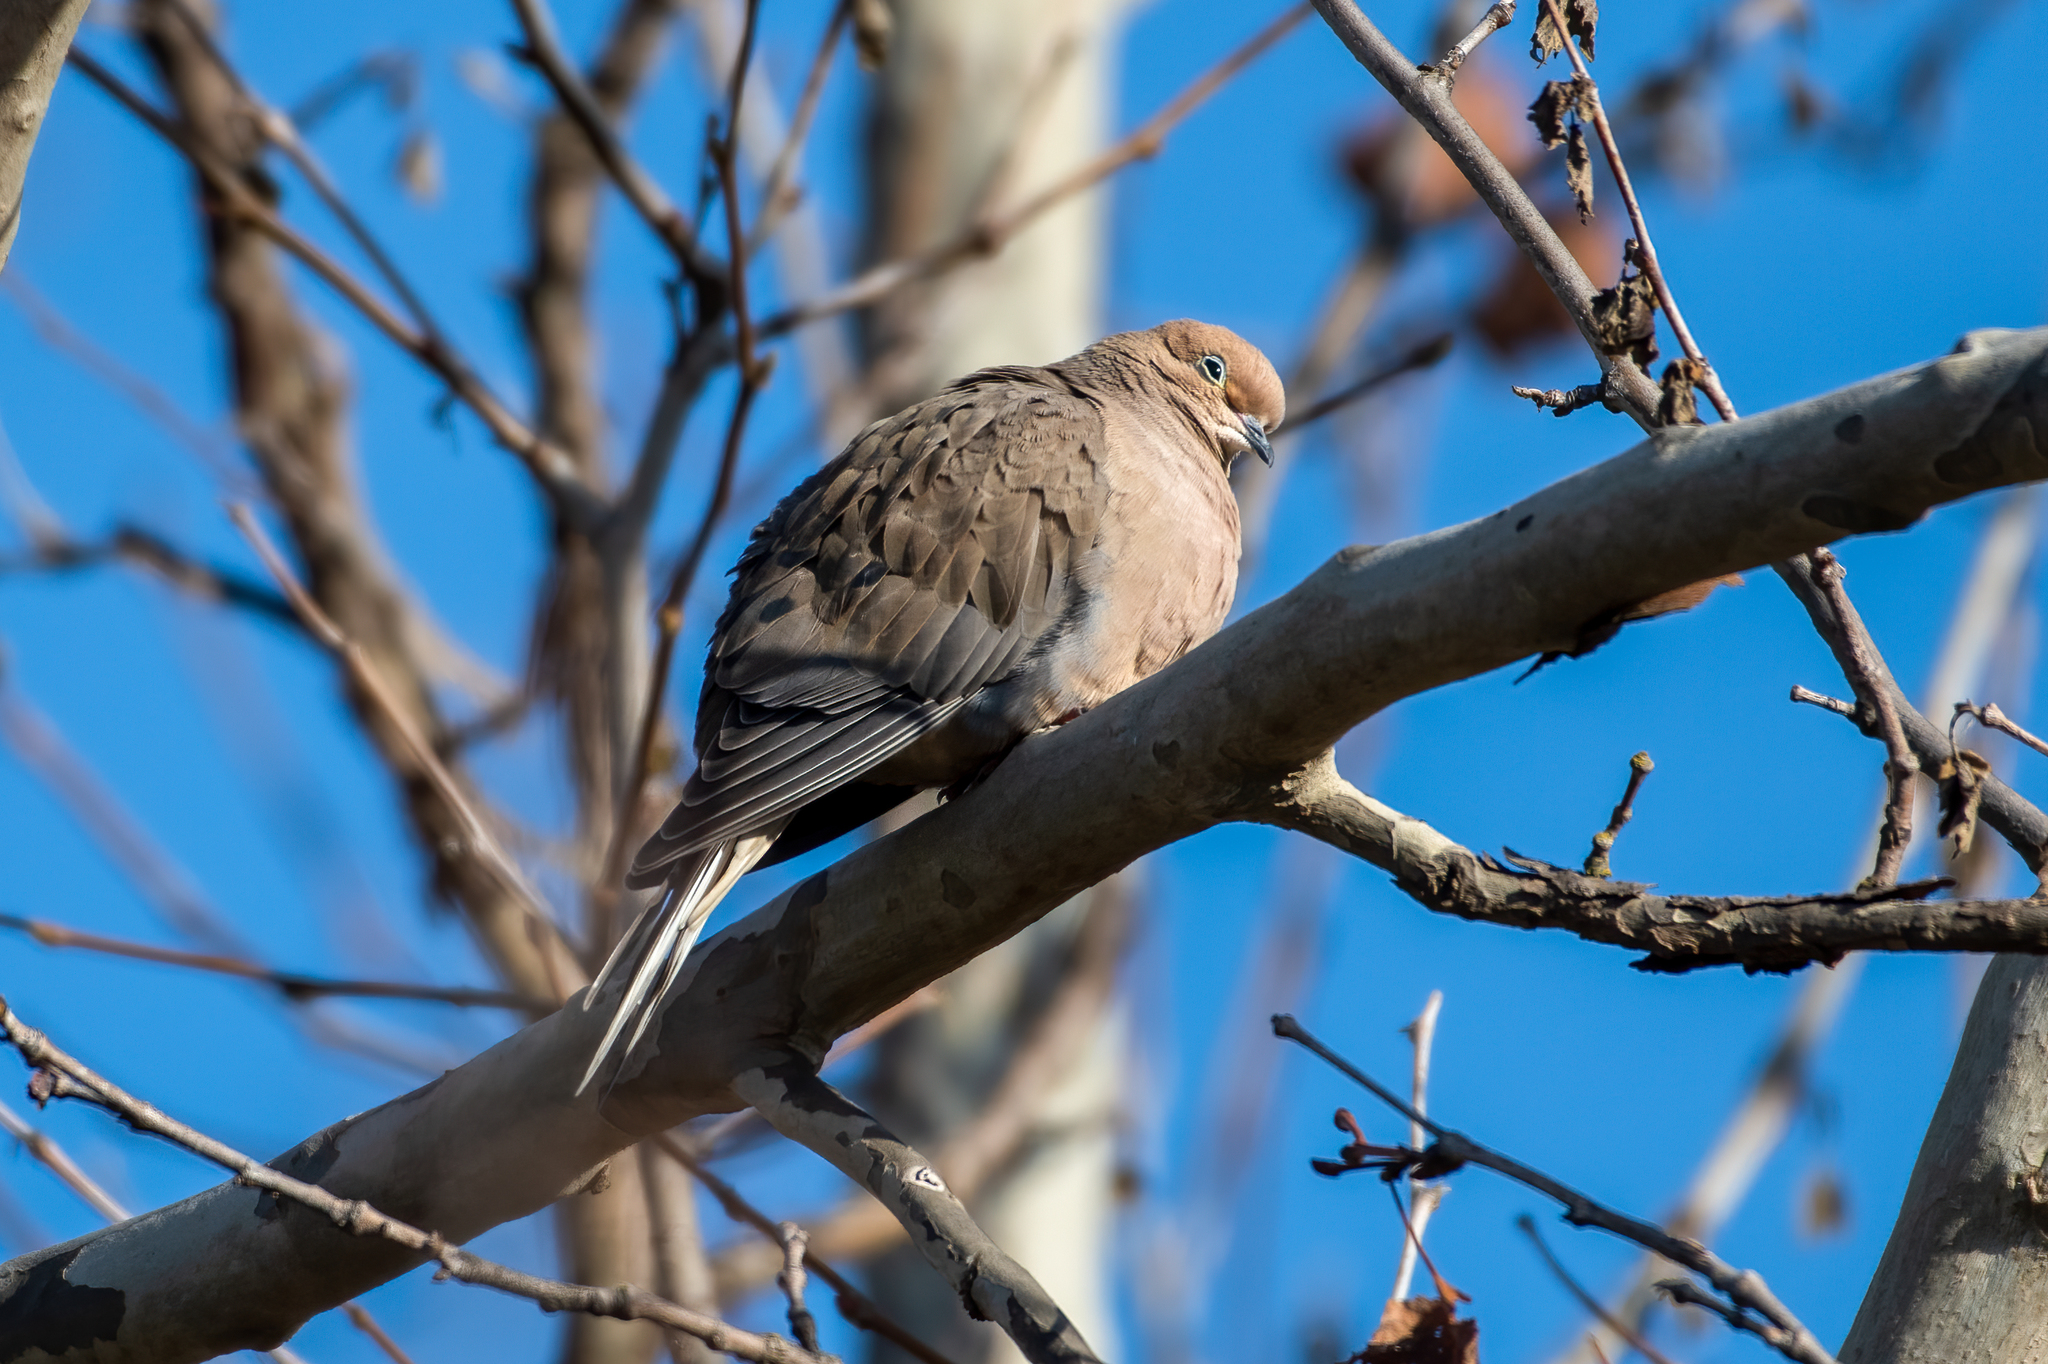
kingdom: Animalia
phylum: Chordata
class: Aves
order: Columbiformes
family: Columbidae
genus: Zenaida
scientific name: Zenaida macroura
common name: Mourning dove
